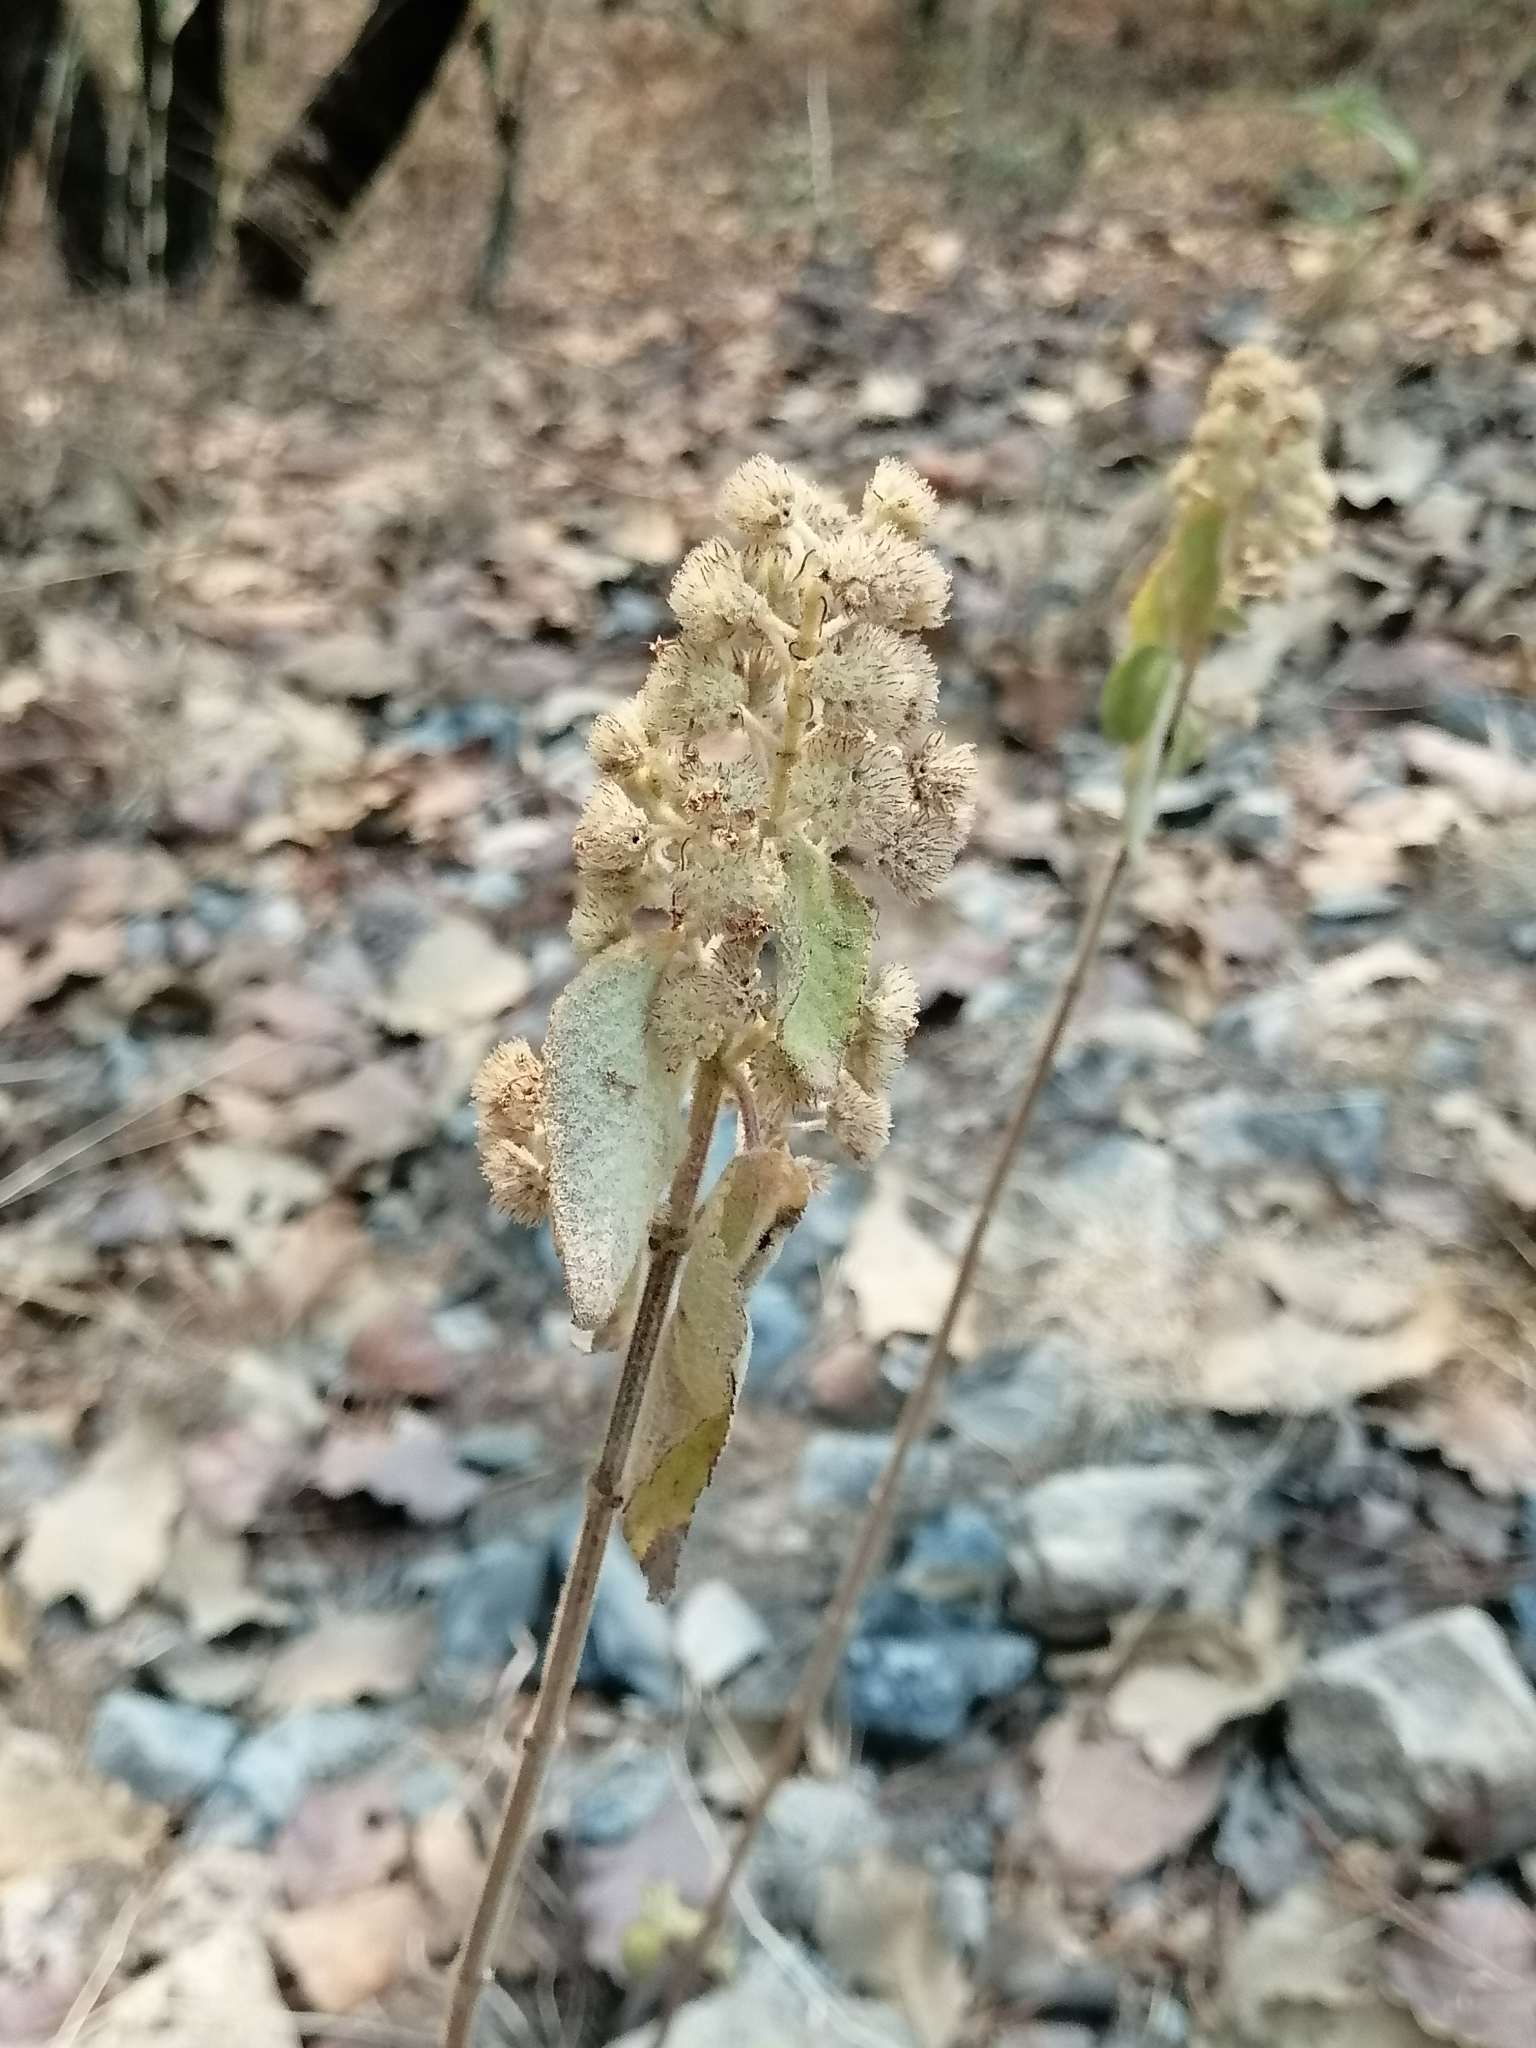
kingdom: Plantae
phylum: Tracheophyta
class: Magnoliopsida
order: Lamiales
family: Lamiaceae
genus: Mesosphaerum
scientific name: Mesosphaerum oblongifolium
